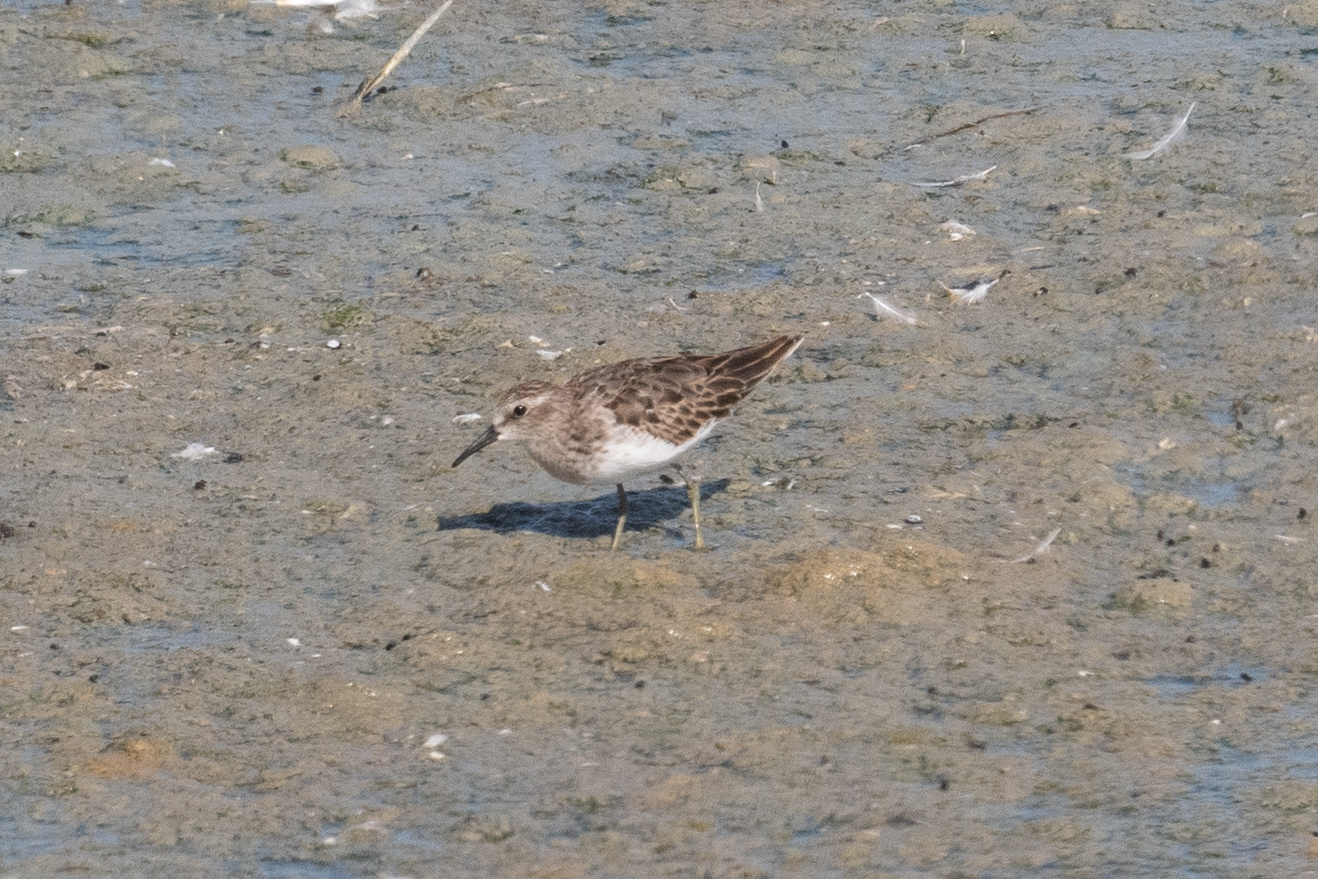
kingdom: Animalia
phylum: Chordata
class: Aves
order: Charadriiformes
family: Scolopacidae
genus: Calidris
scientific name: Calidris minutilla
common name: Least sandpiper
